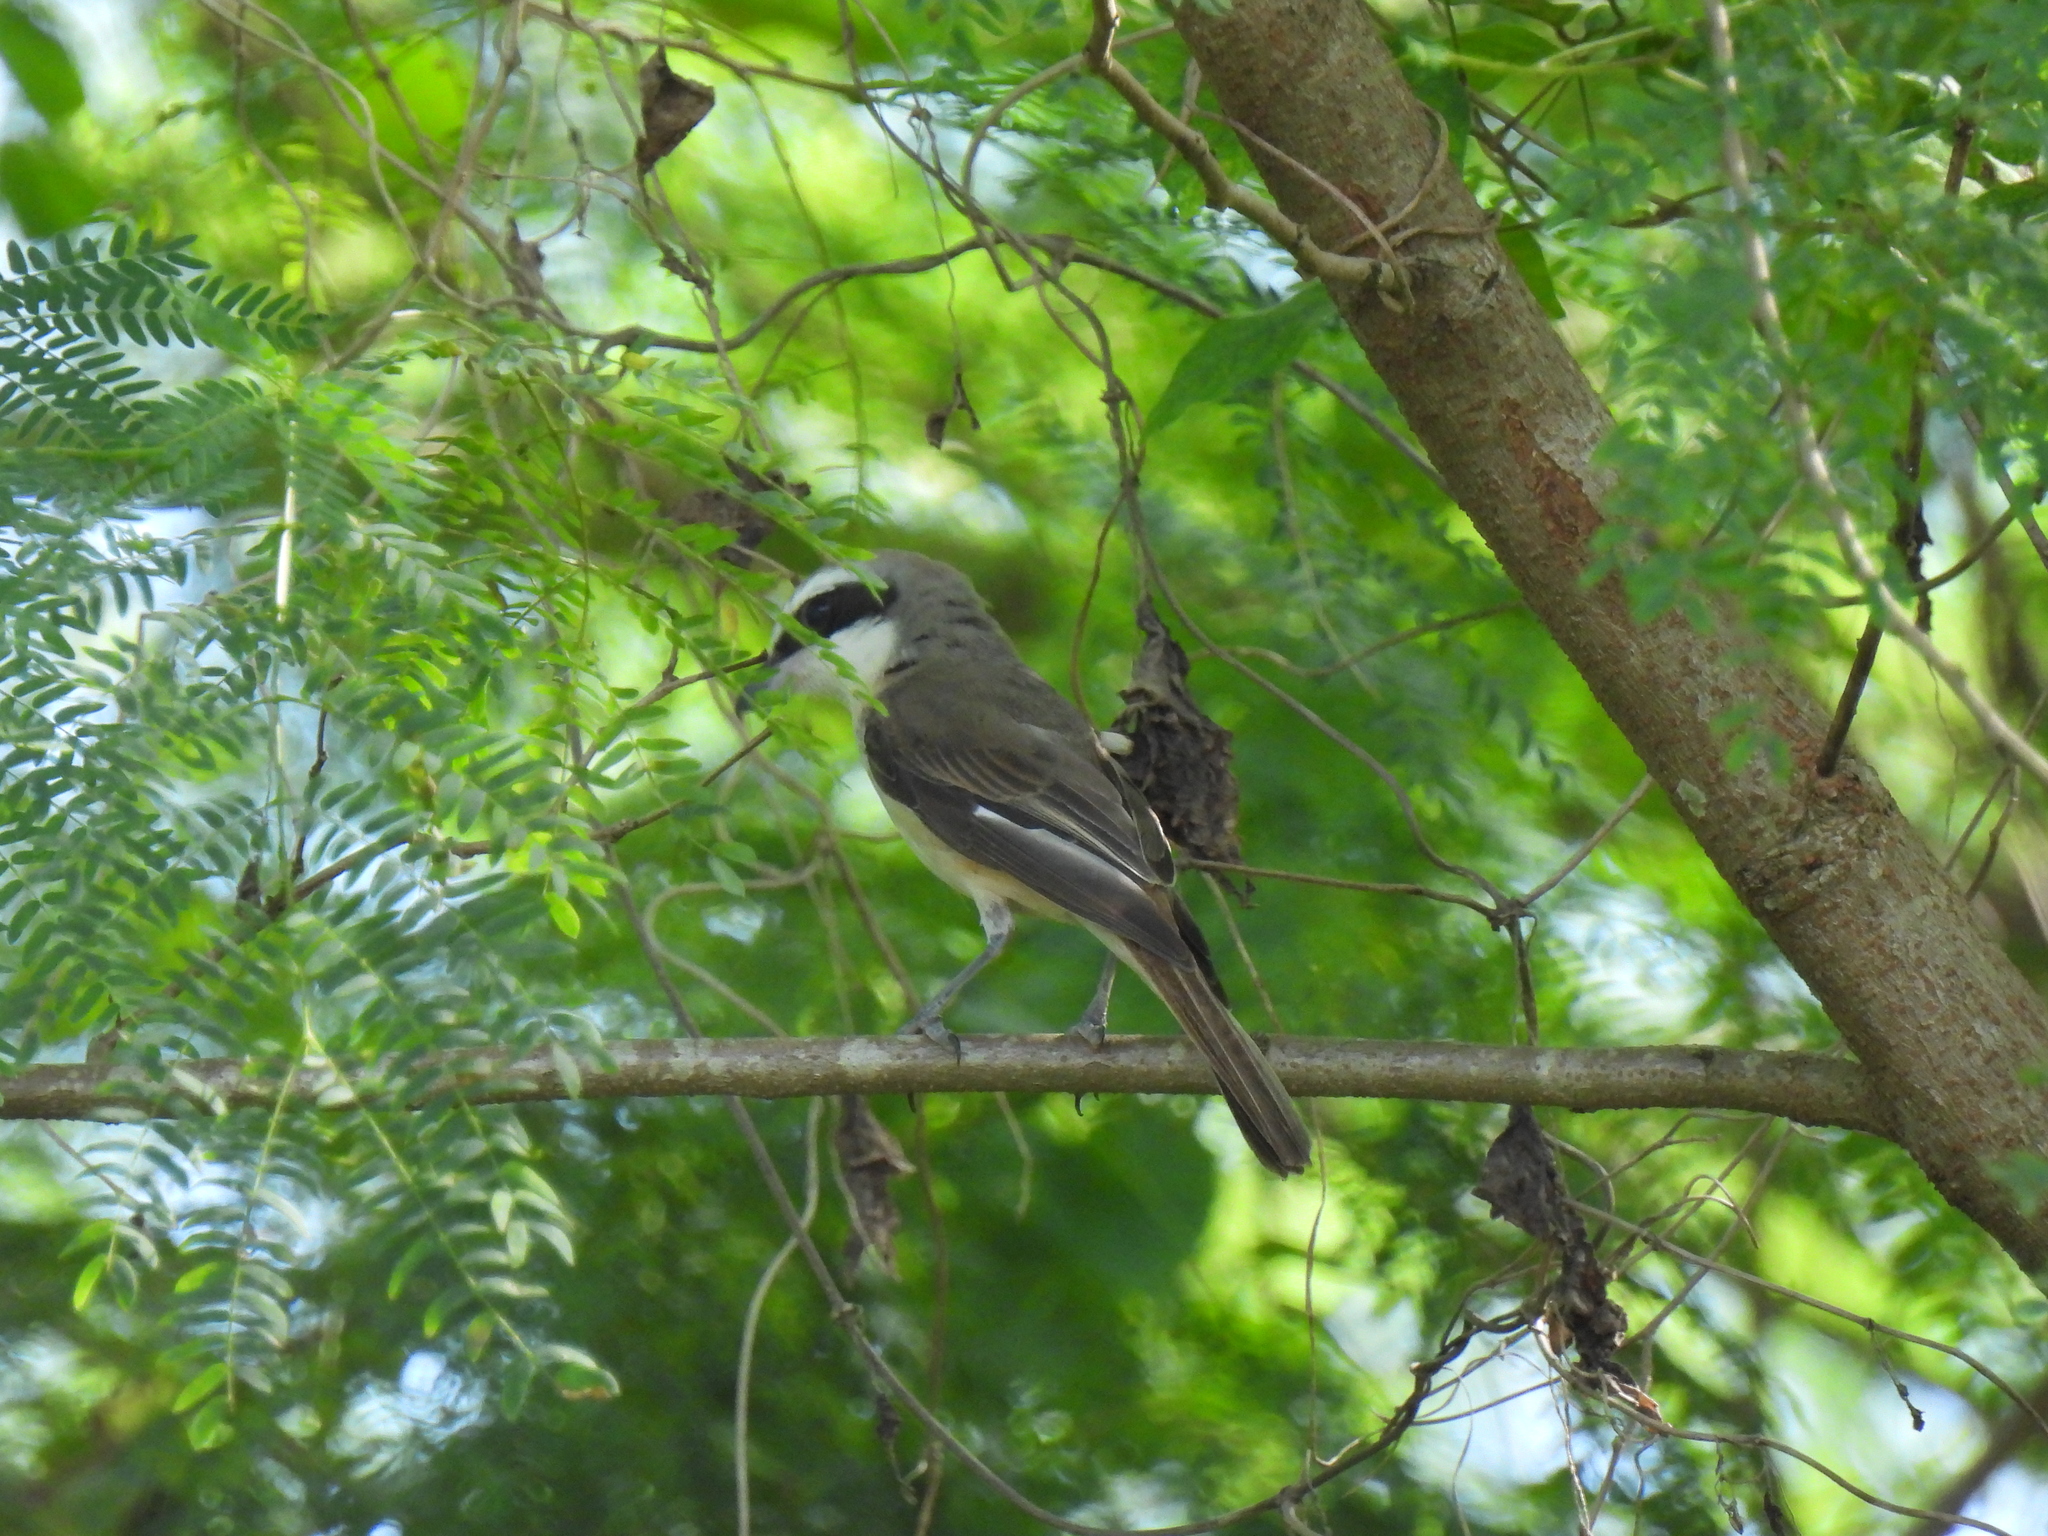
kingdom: Animalia
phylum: Chordata
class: Aves
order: Passeriformes
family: Laniidae
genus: Lanius
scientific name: Lanius cristatus
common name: Brown shrike
